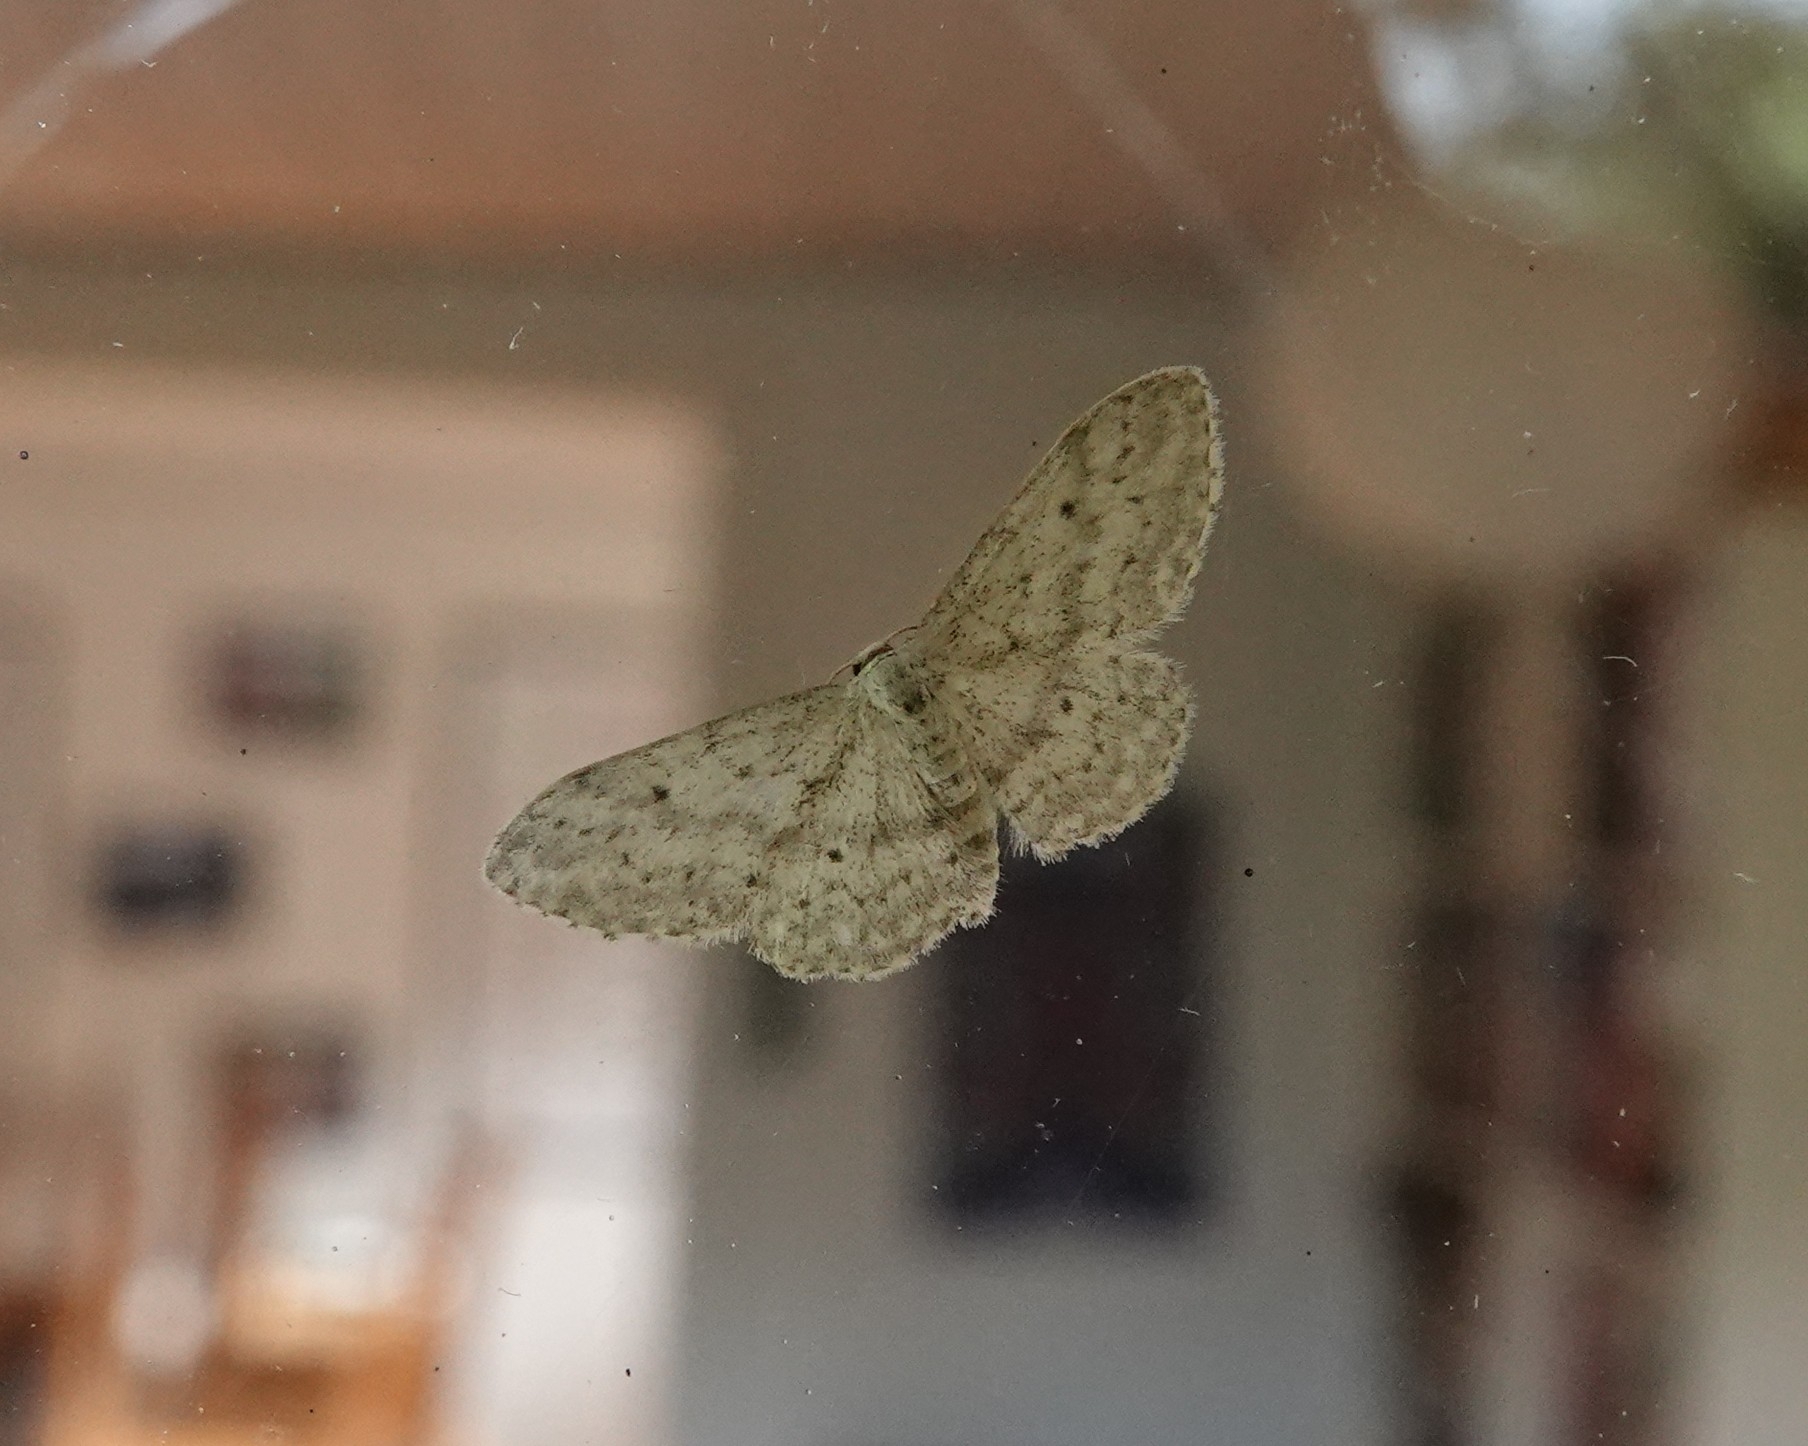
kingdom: Animalia
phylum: Arthropoda
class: Insecta
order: Lepidoptera
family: Geometridae
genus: Idaea
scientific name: Idaea seriata
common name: Small dusty wave
